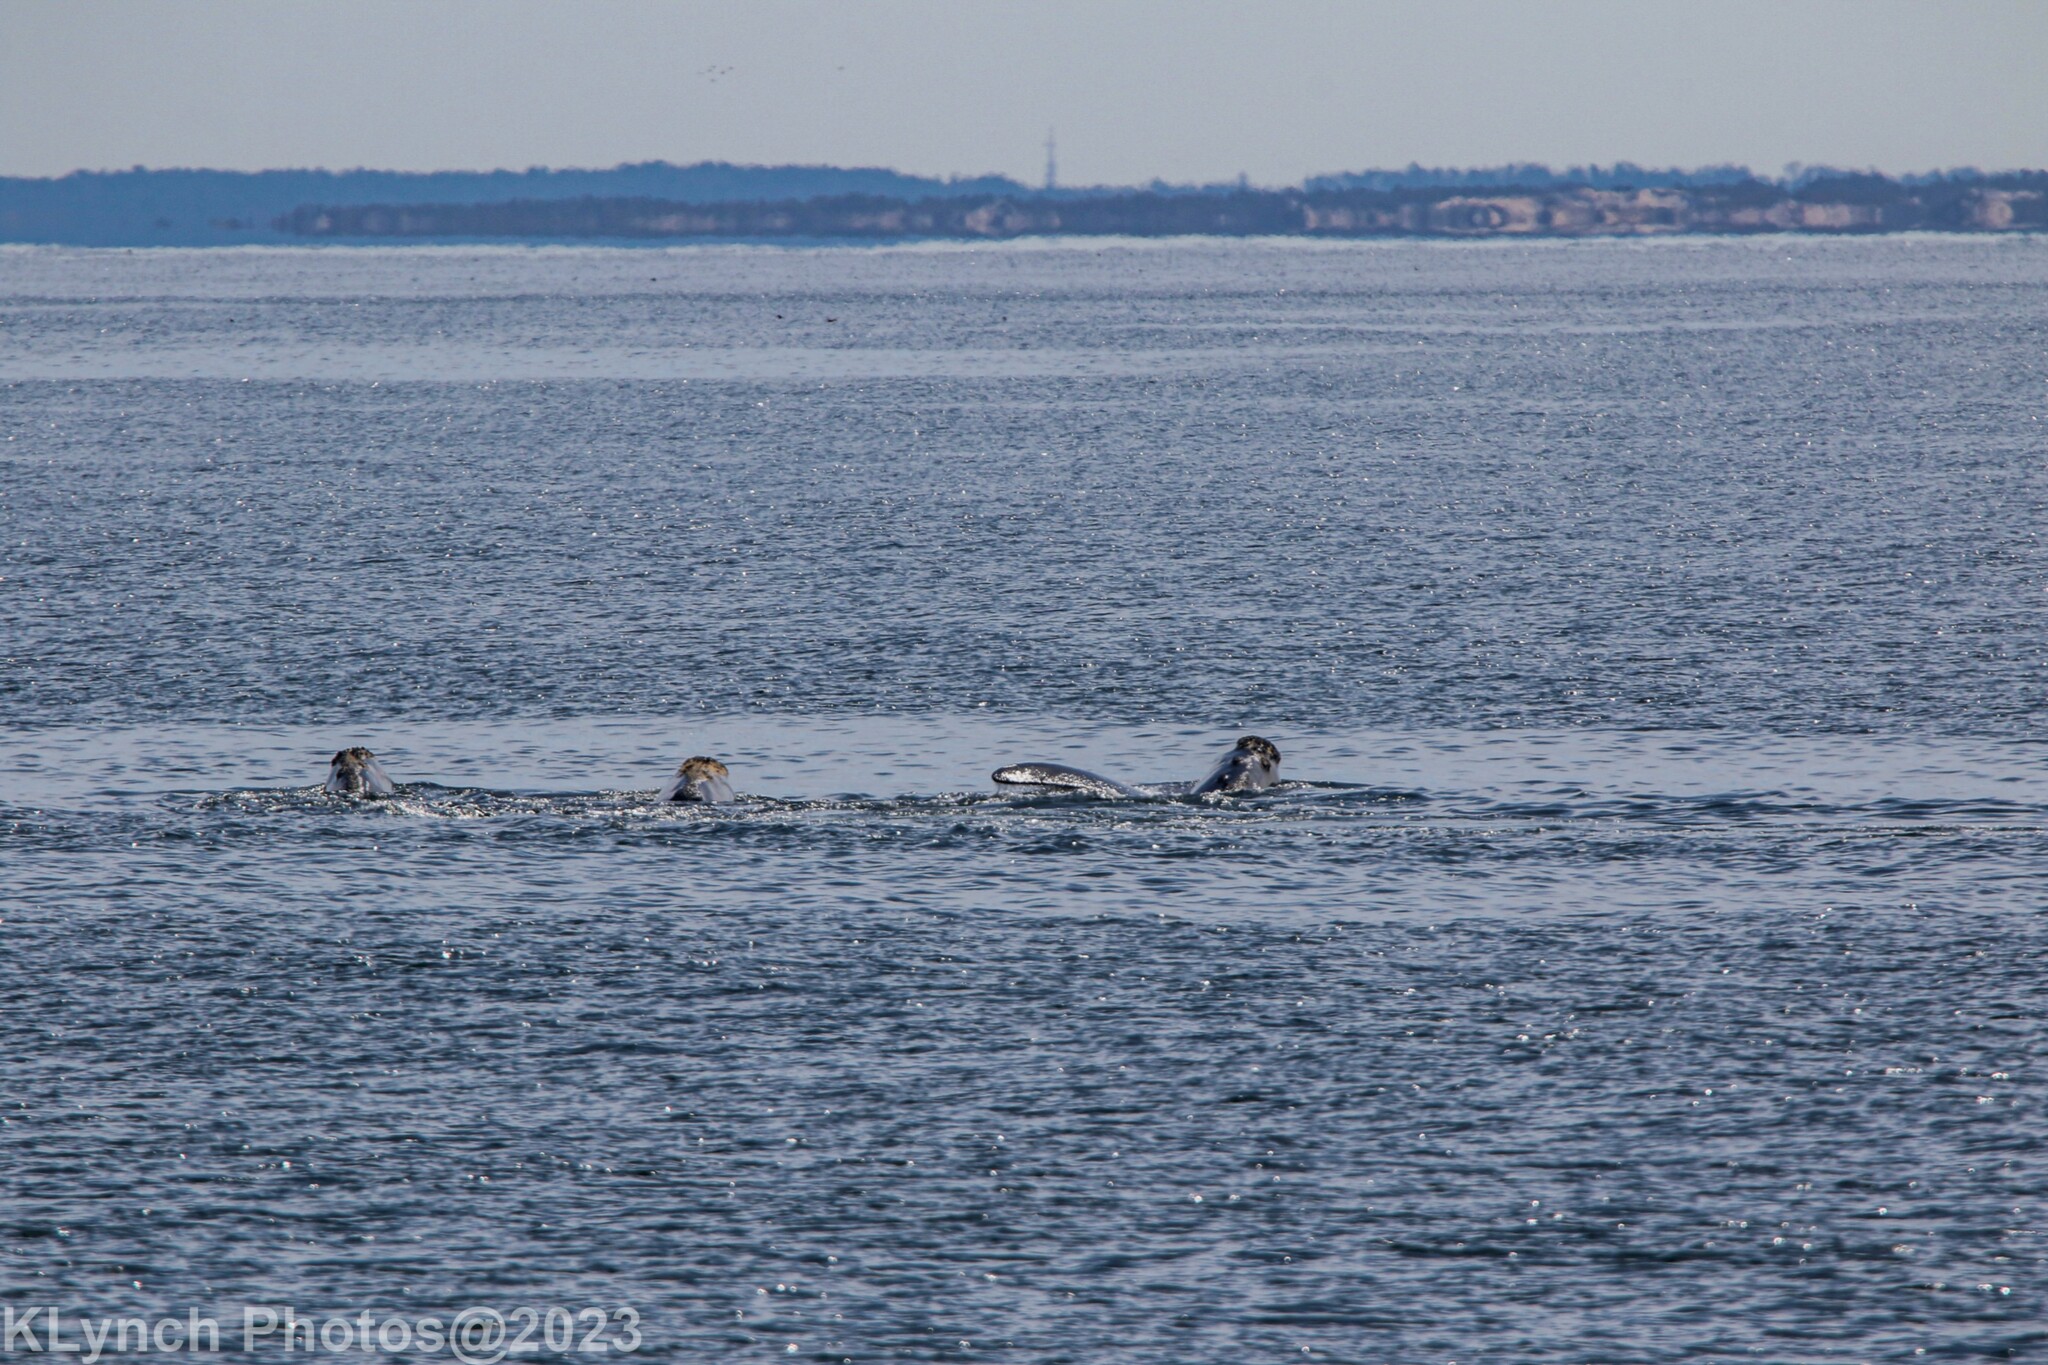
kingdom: Animalia
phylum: Chordata
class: Mammalia
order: Cetacea
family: Balaenidae
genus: Eubalaena
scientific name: Eubalaena glacialis
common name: North atlantic right whale
